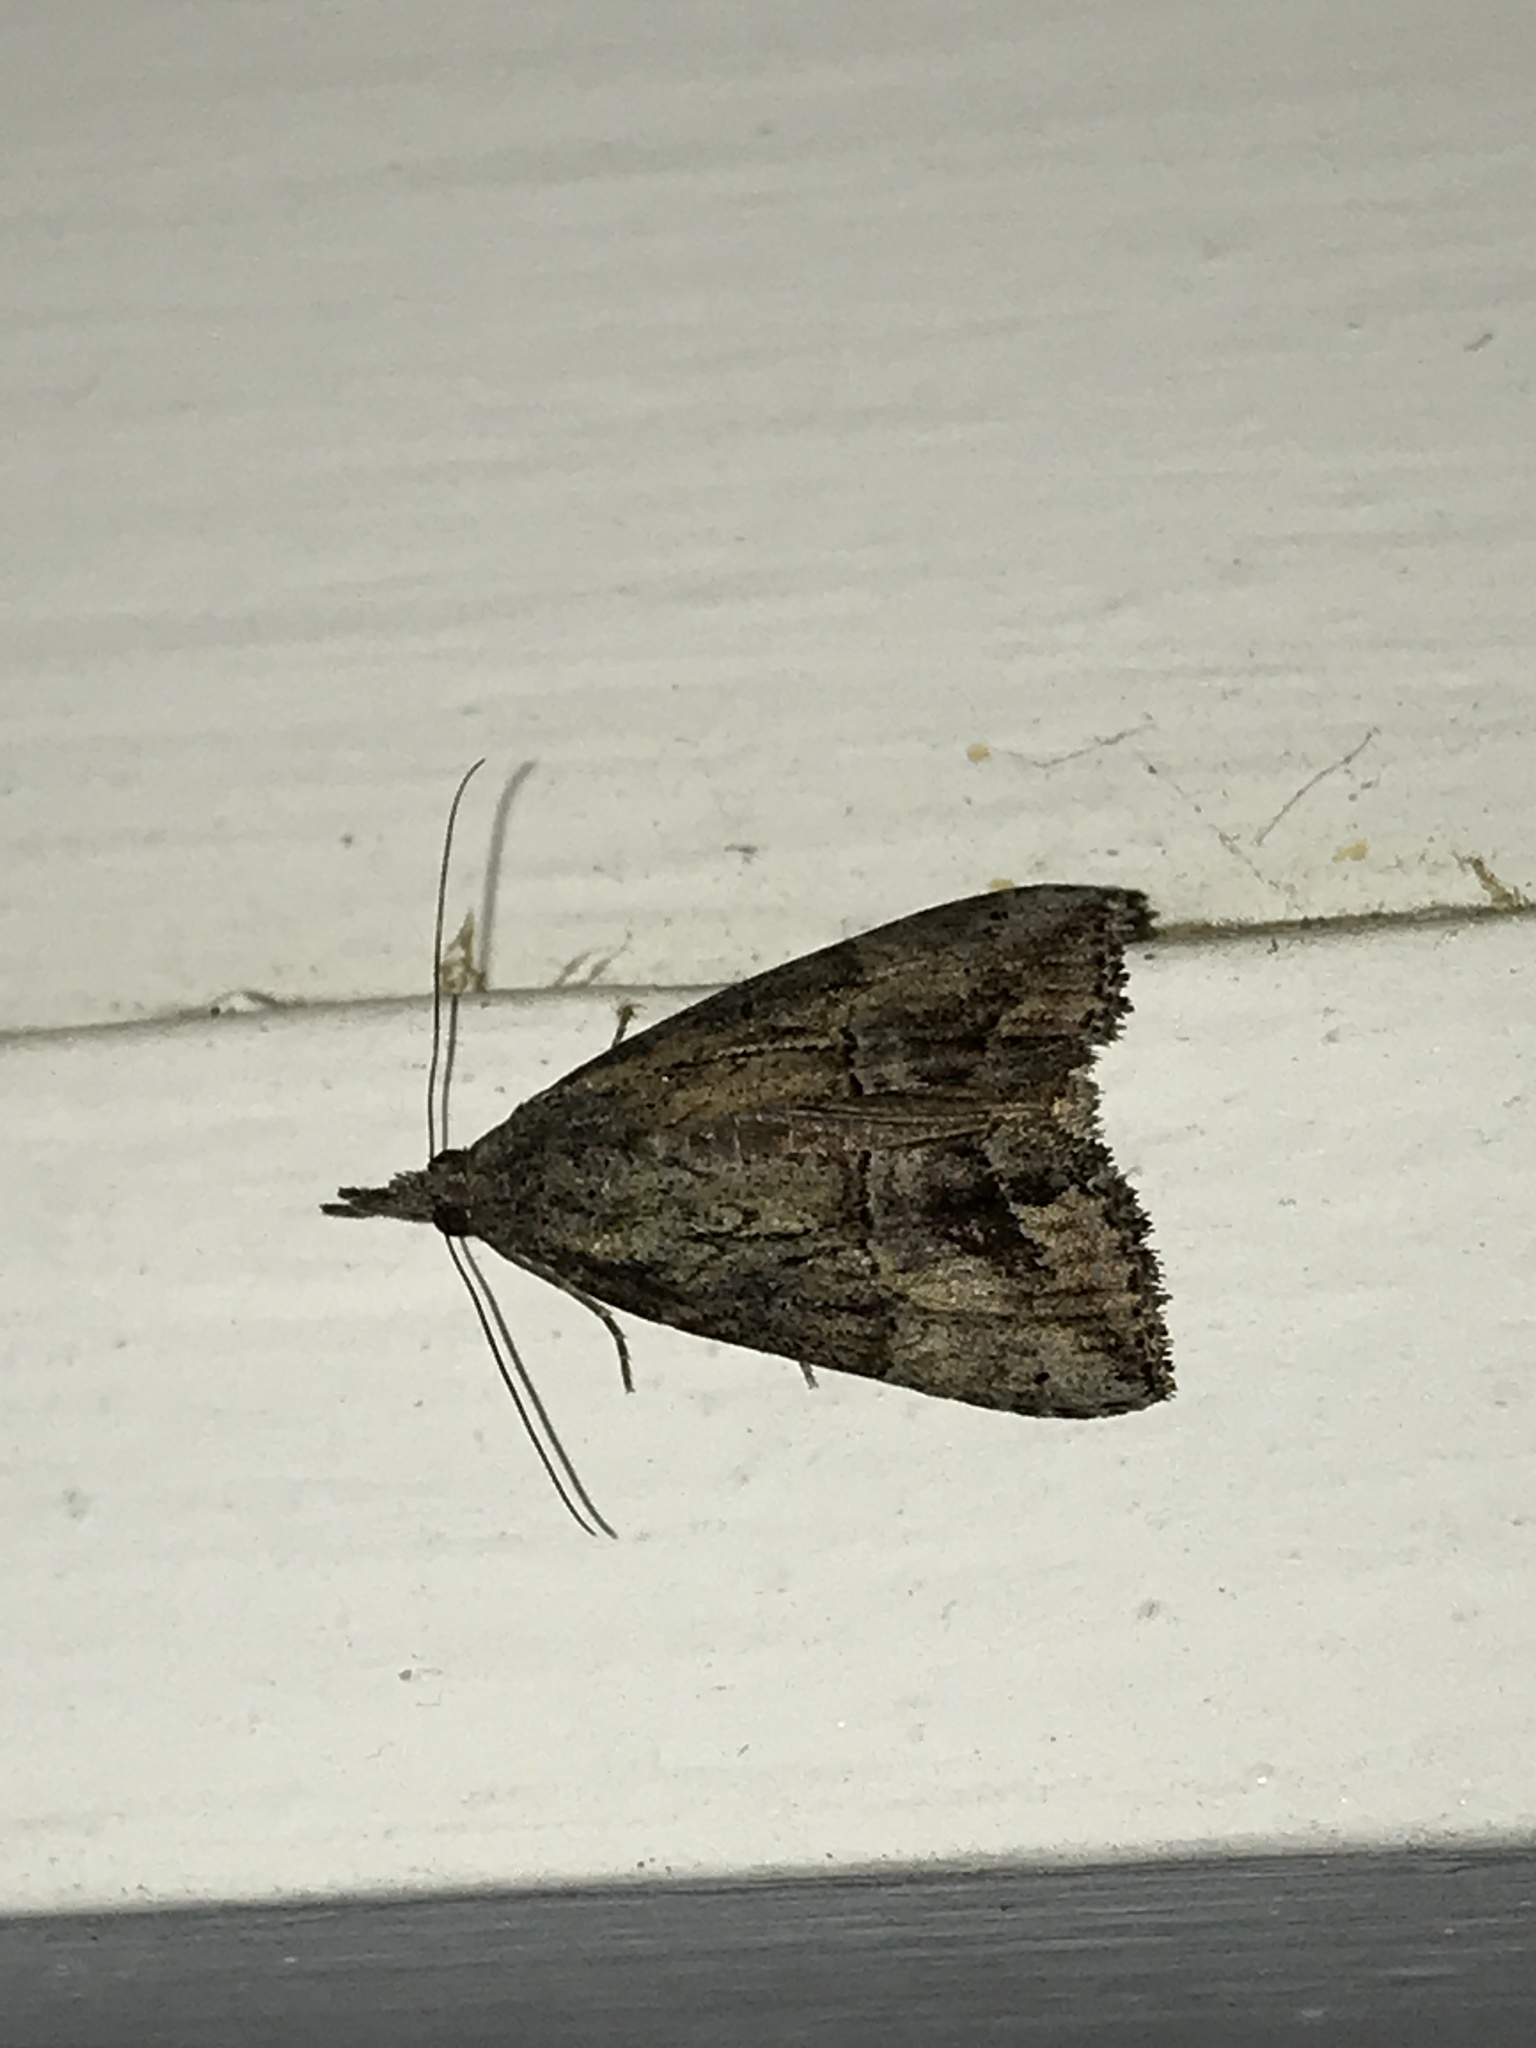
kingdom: Animalia
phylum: Arthropoda
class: Insecta
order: Lepidoptera
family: Erebidae
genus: Hypena
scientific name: Hypena scabra
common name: Green cloverworm
